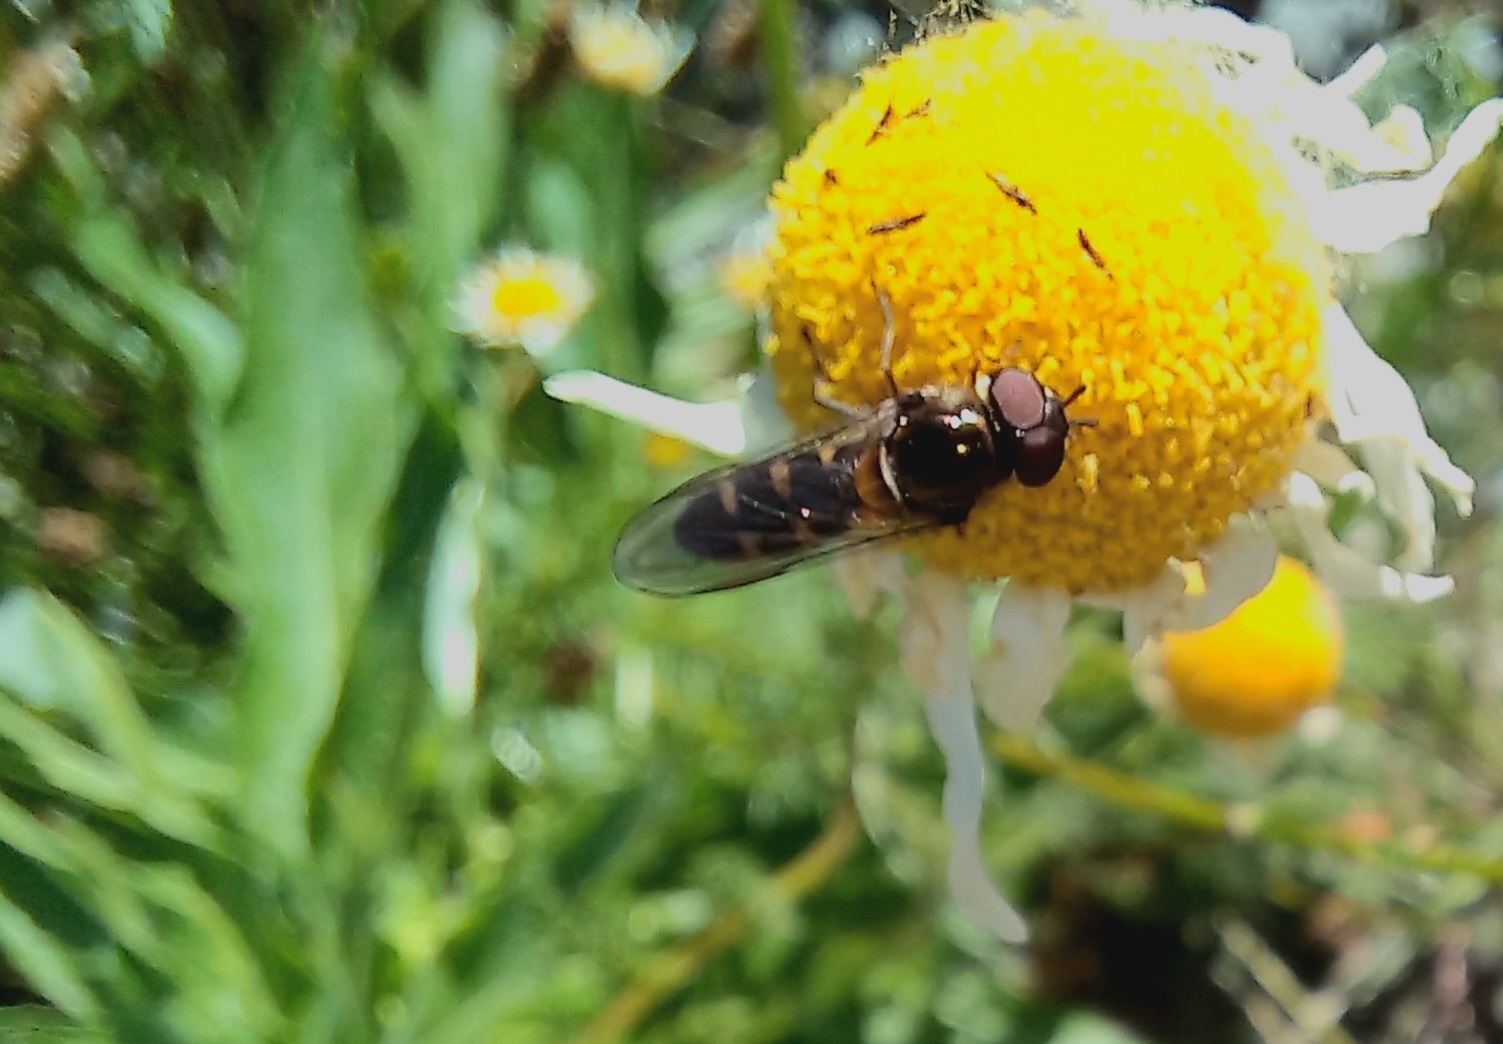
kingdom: Animalia
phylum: Arthropoda
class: Insecta
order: Diptera
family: Syrphidae
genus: Melangyna
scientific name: Melangyna novaezelandiae
